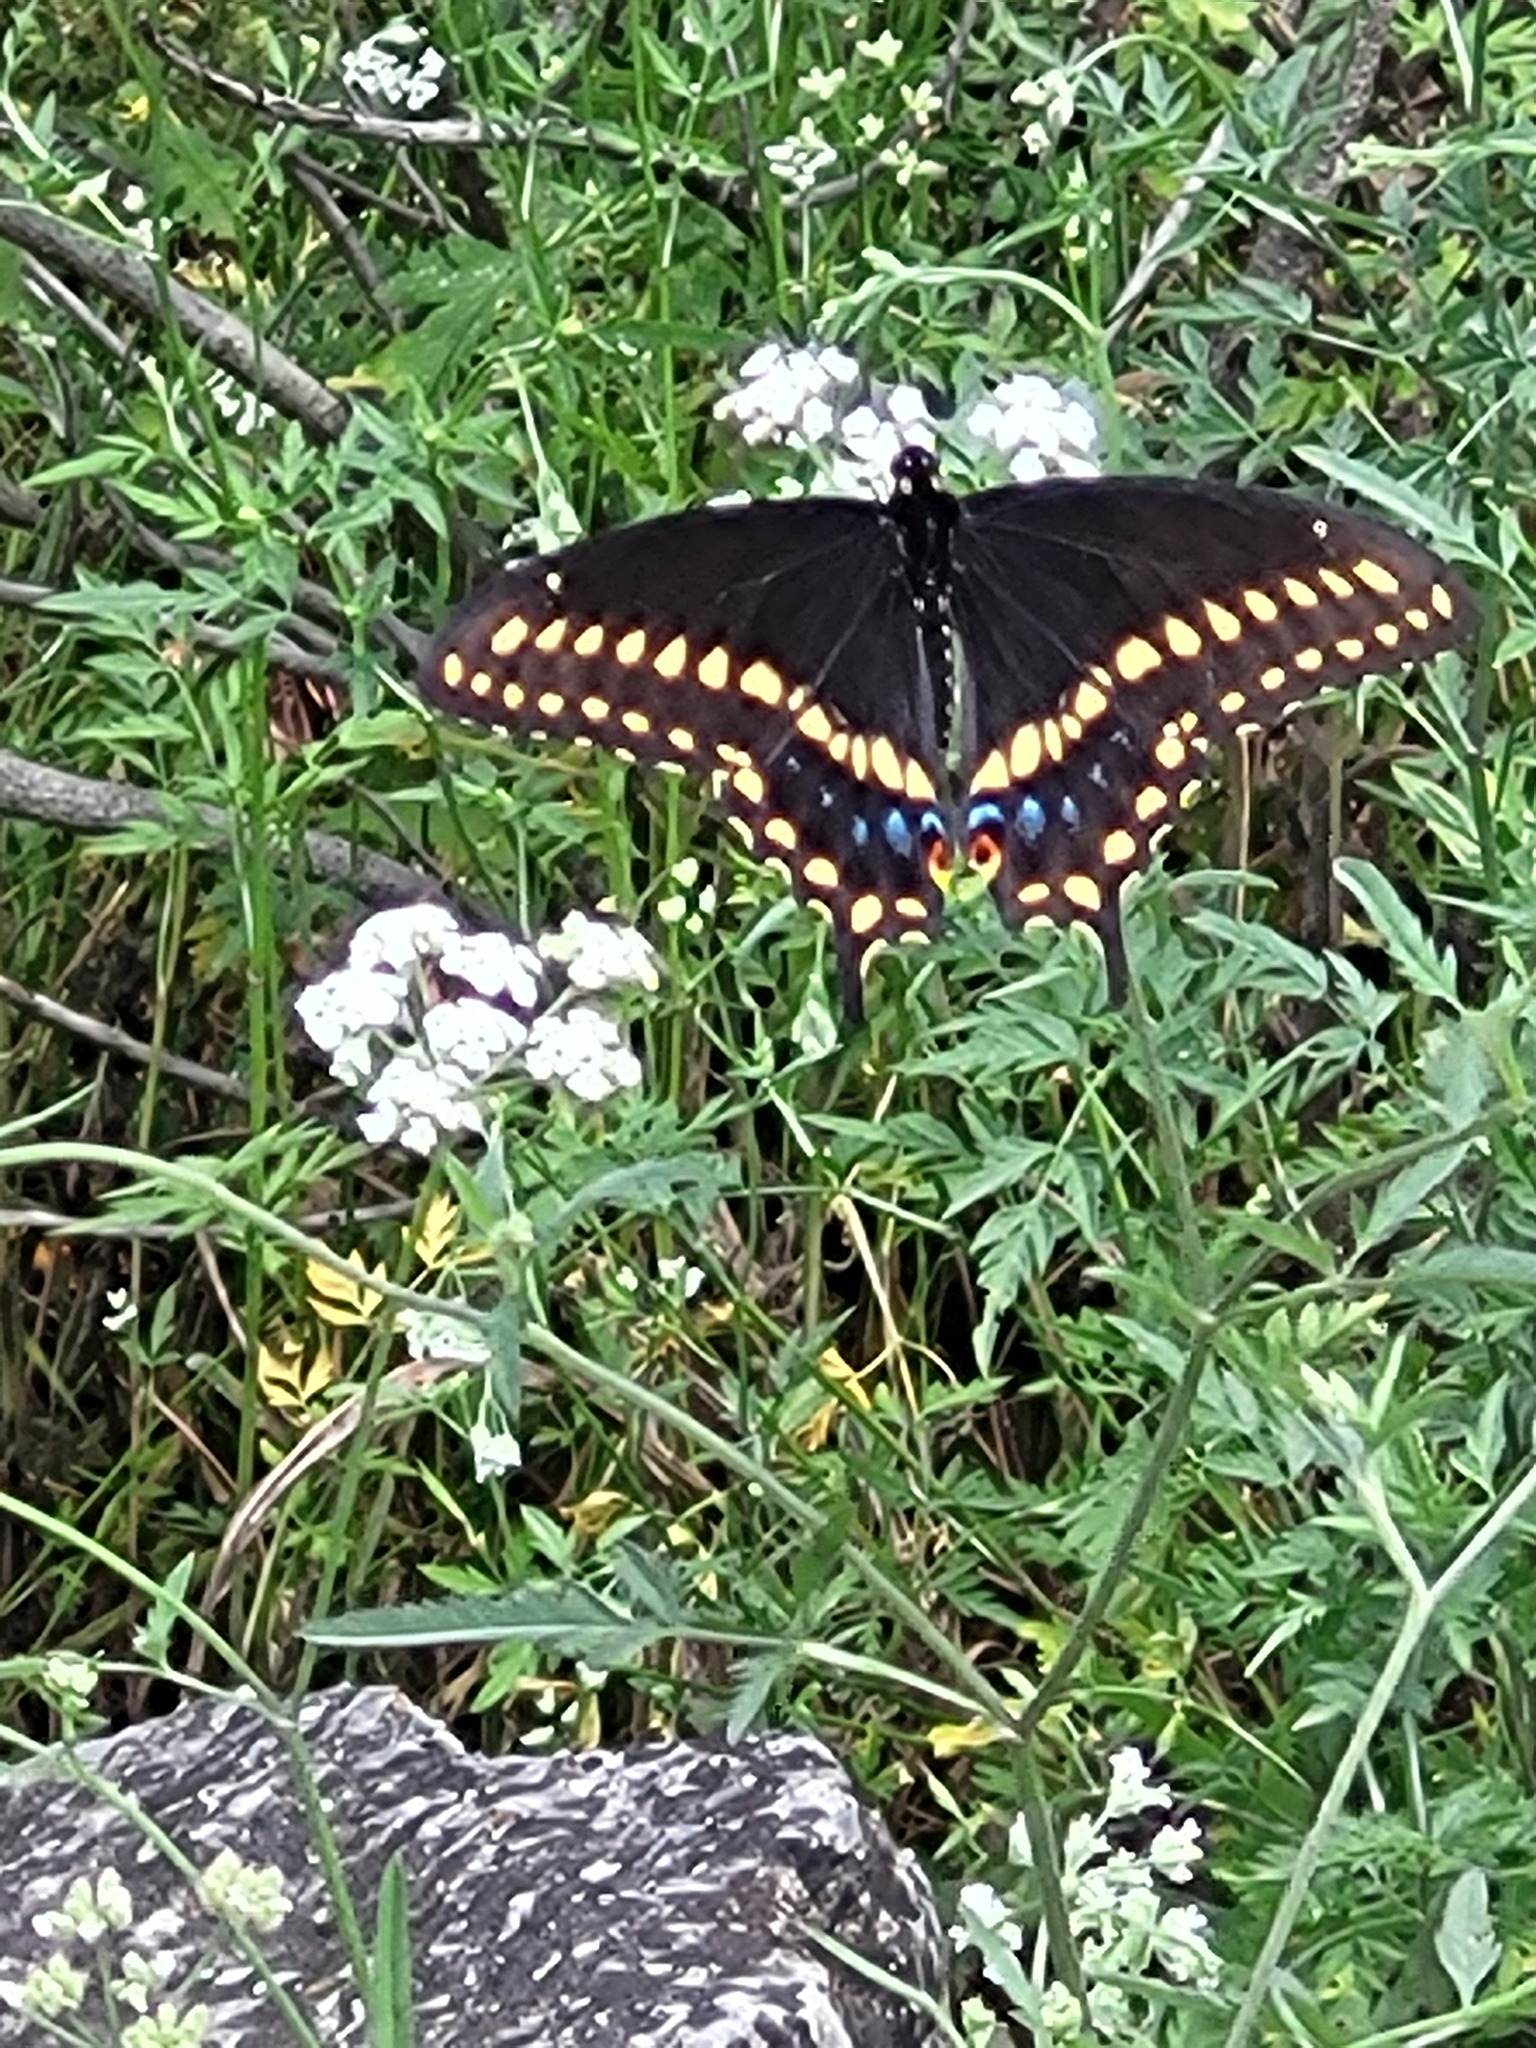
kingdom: Animalia
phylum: Arthropoda
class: Insecta
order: Lepidoptera
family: Papilionidae
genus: Papilio
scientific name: Papilio polyxenes
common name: Black swallowtail
